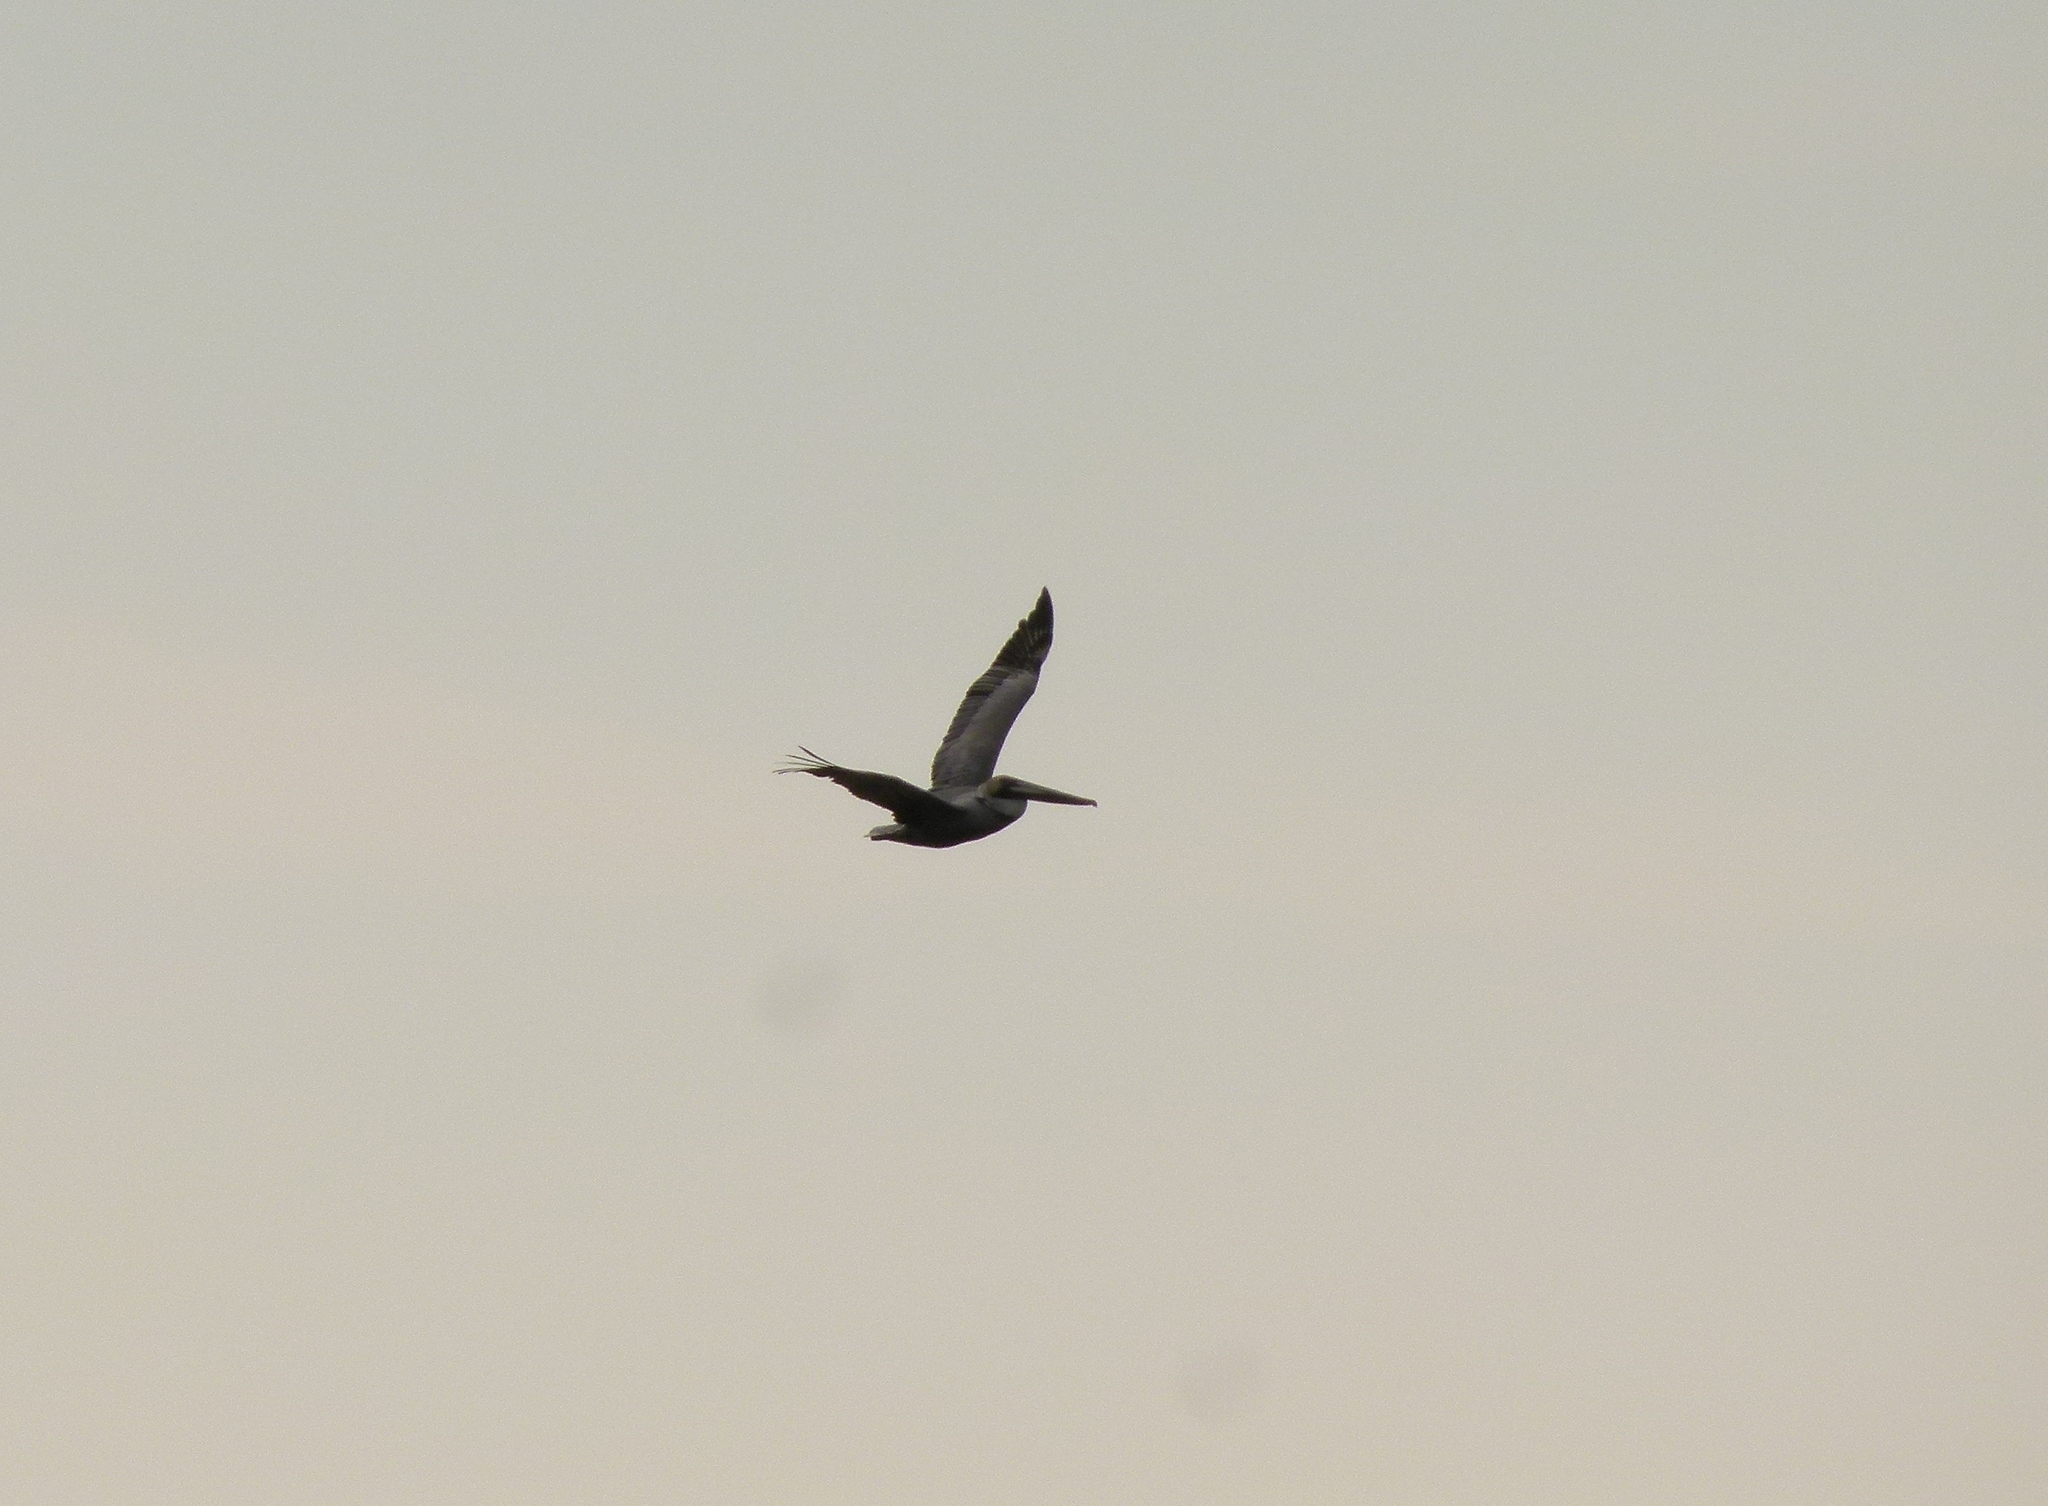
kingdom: Animalia
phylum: Chordata
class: Aves
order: Pelecaniformes
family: Pelecanidae
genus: Pelecanus
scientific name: Pelecanus occidentalis
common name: Brown pelican
